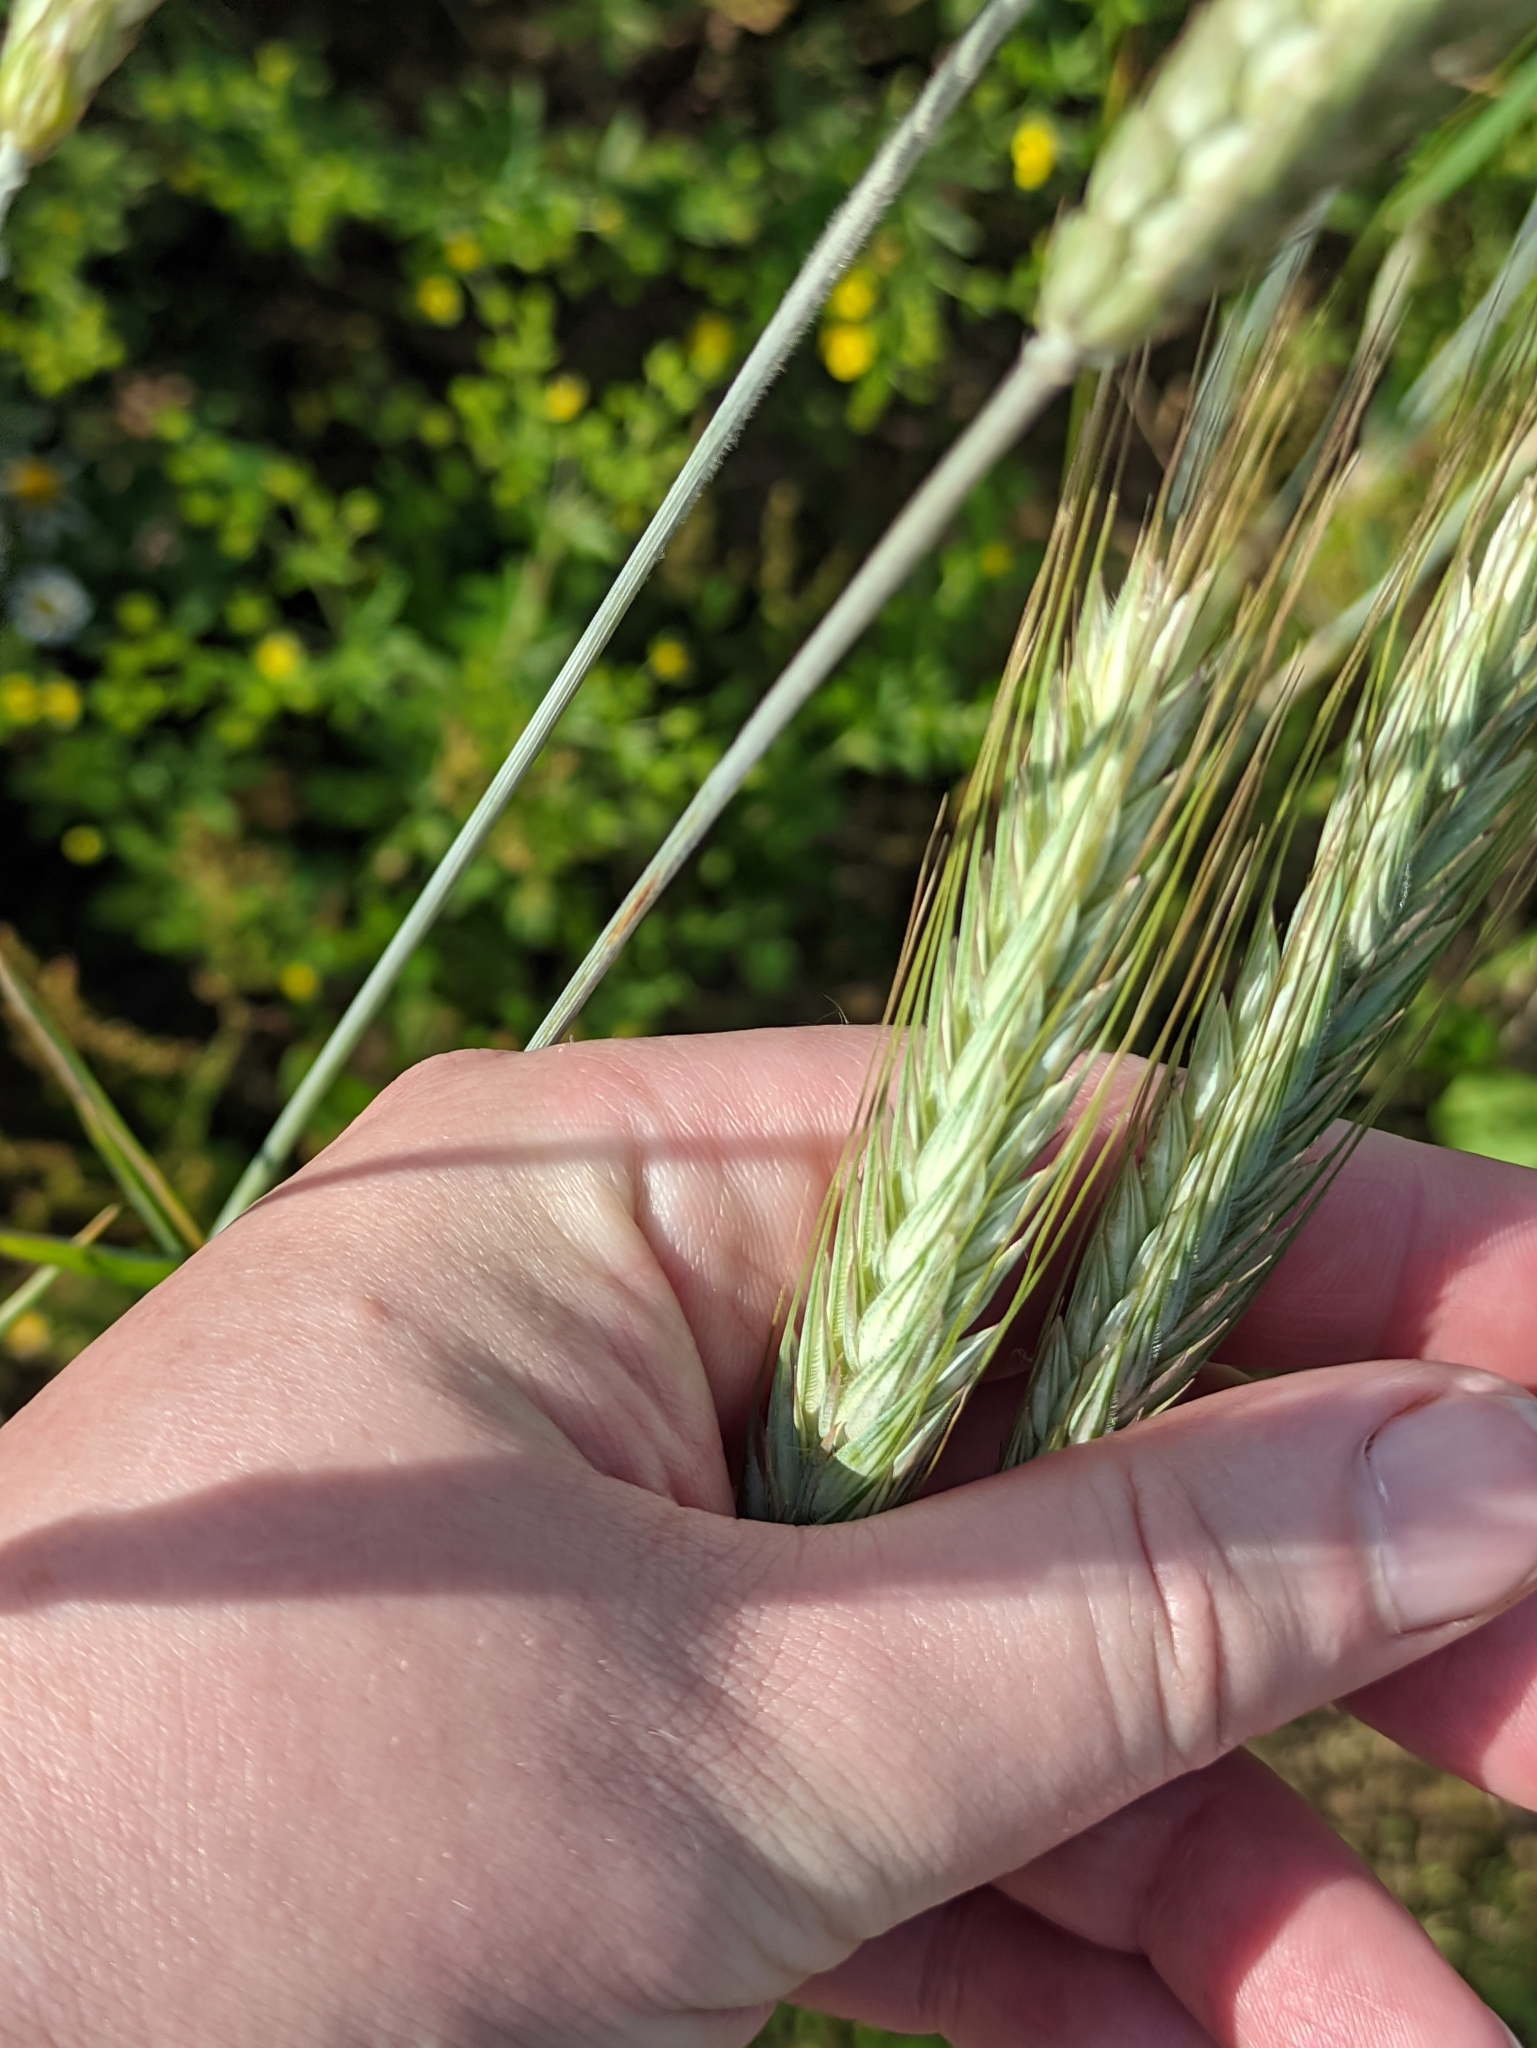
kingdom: Plantae
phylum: Tracheophyta
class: Liliopsida
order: Poales
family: Poaceae
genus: Secale
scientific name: Secale cereale
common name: Rye
